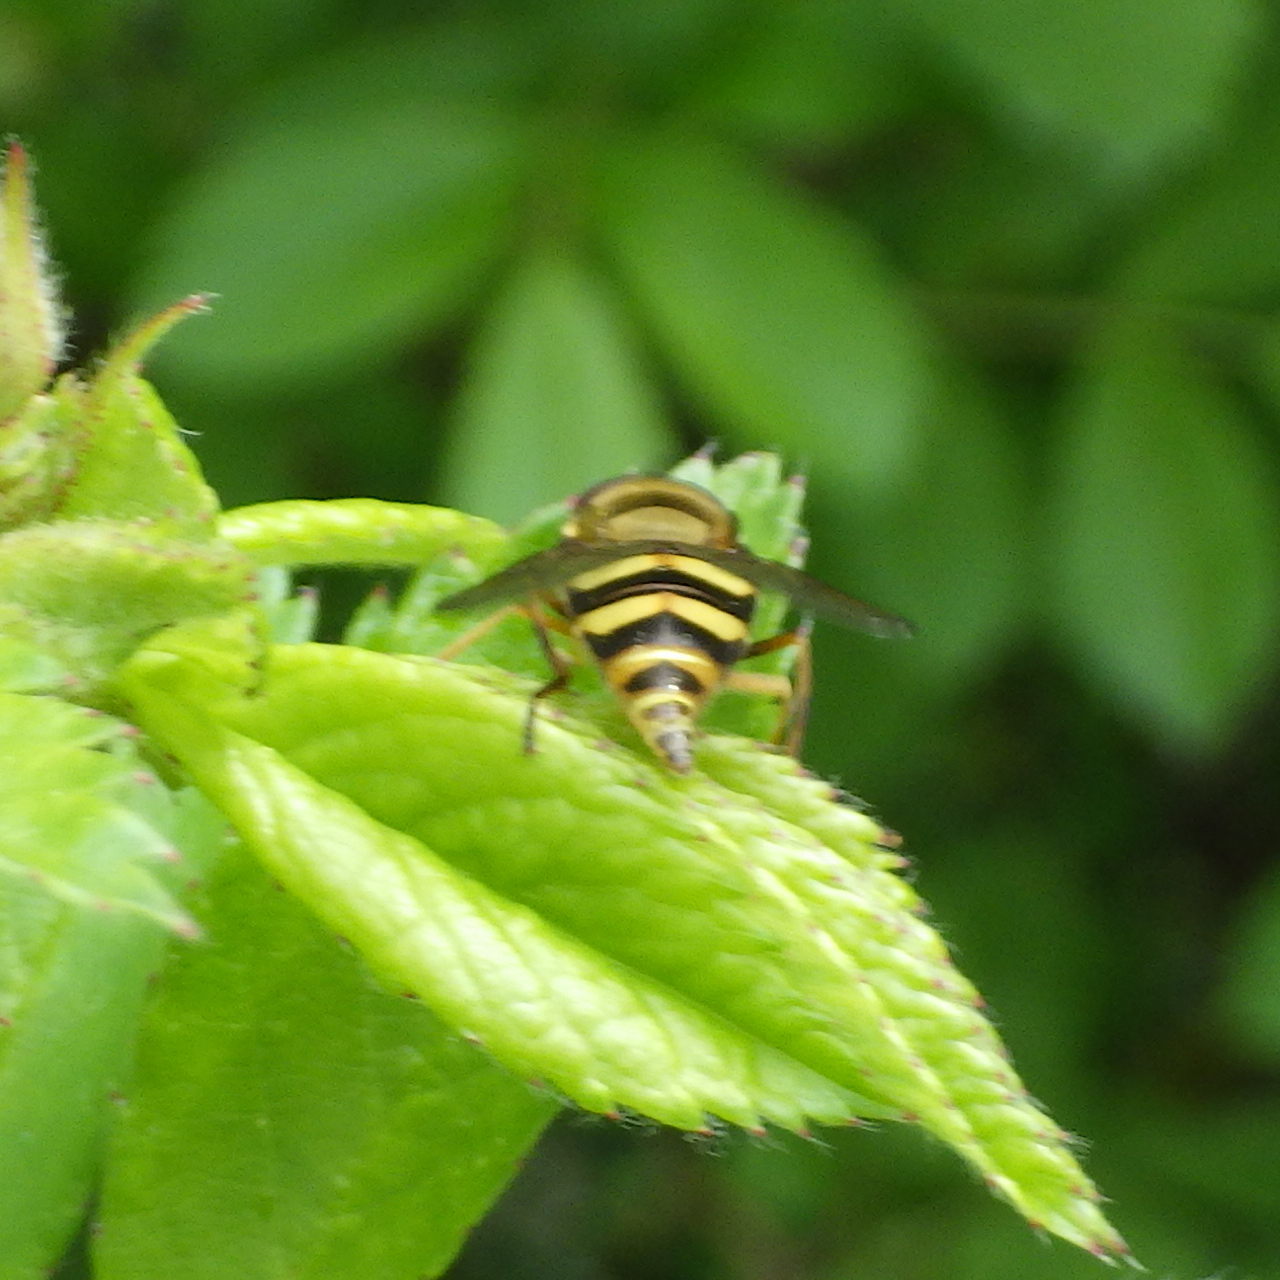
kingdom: Animalia
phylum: Arthropoda
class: Insecta
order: Diptera
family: Syrphidae
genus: Syrphus
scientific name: Syrphus
